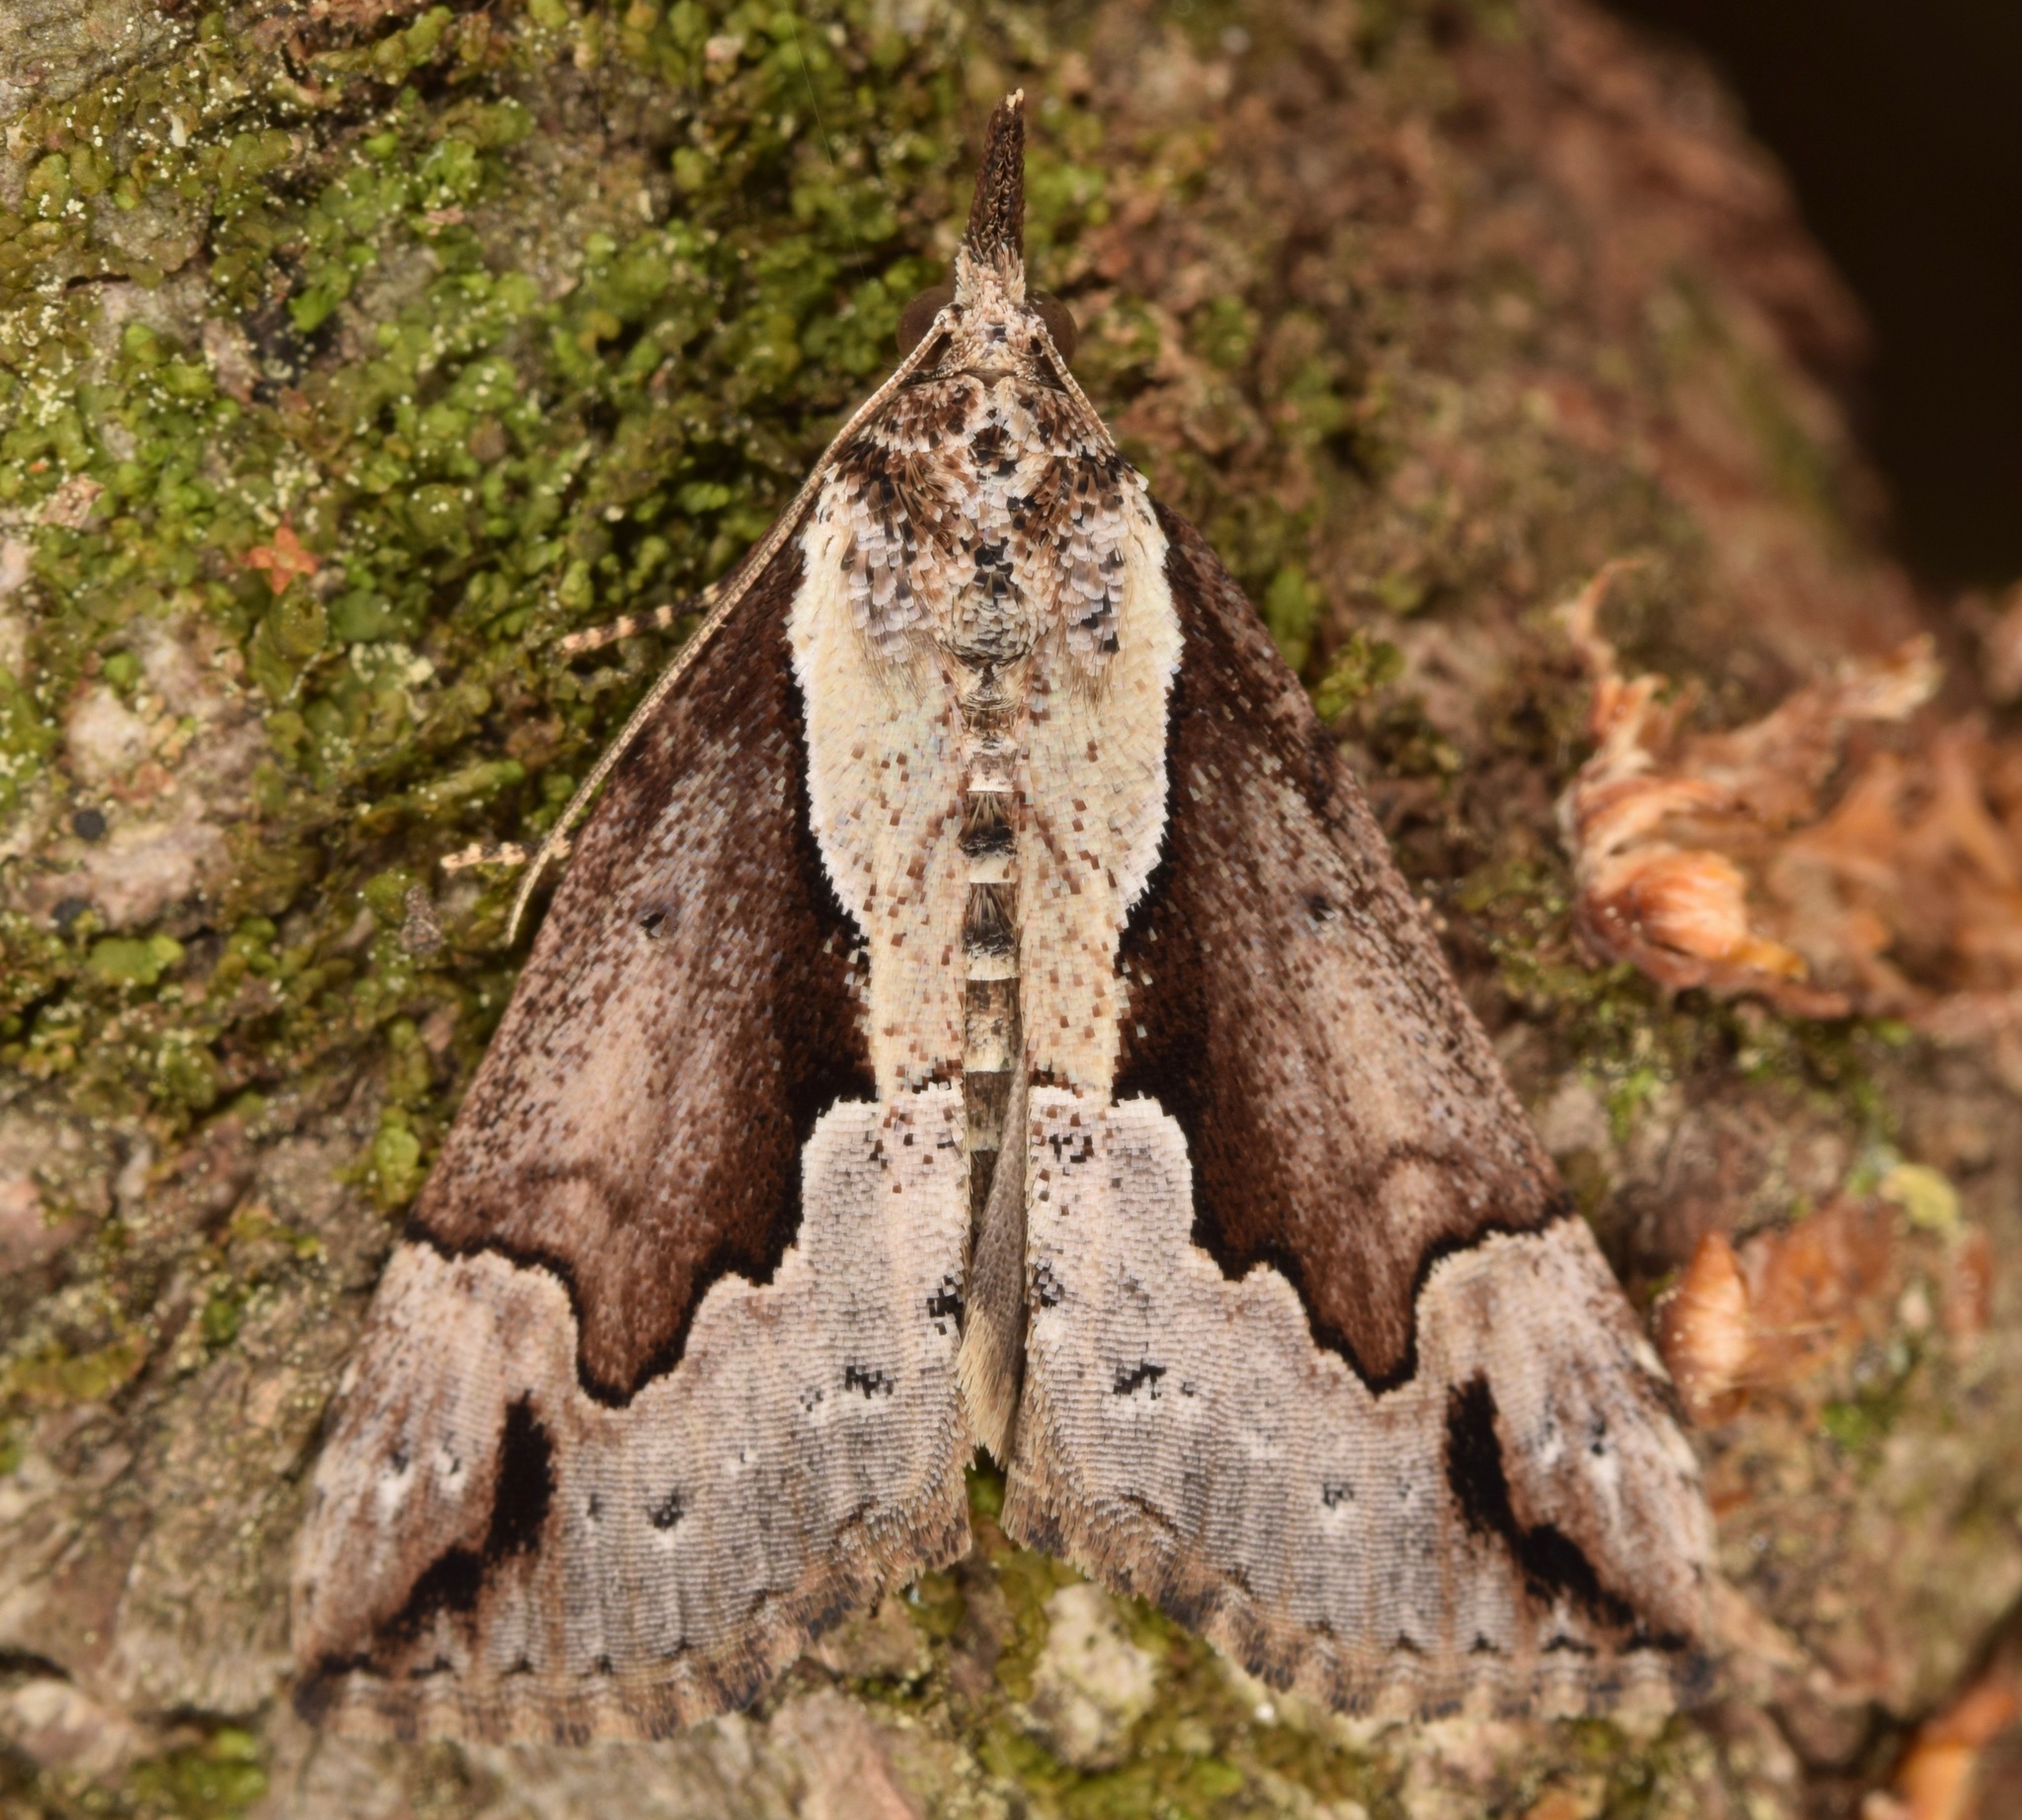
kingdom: Animalia
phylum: Arthropoda
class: Insecta
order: Lepidoptera
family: Erebidae
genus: Hypena
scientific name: Hypena baltimoralis
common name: Baltimore snout
